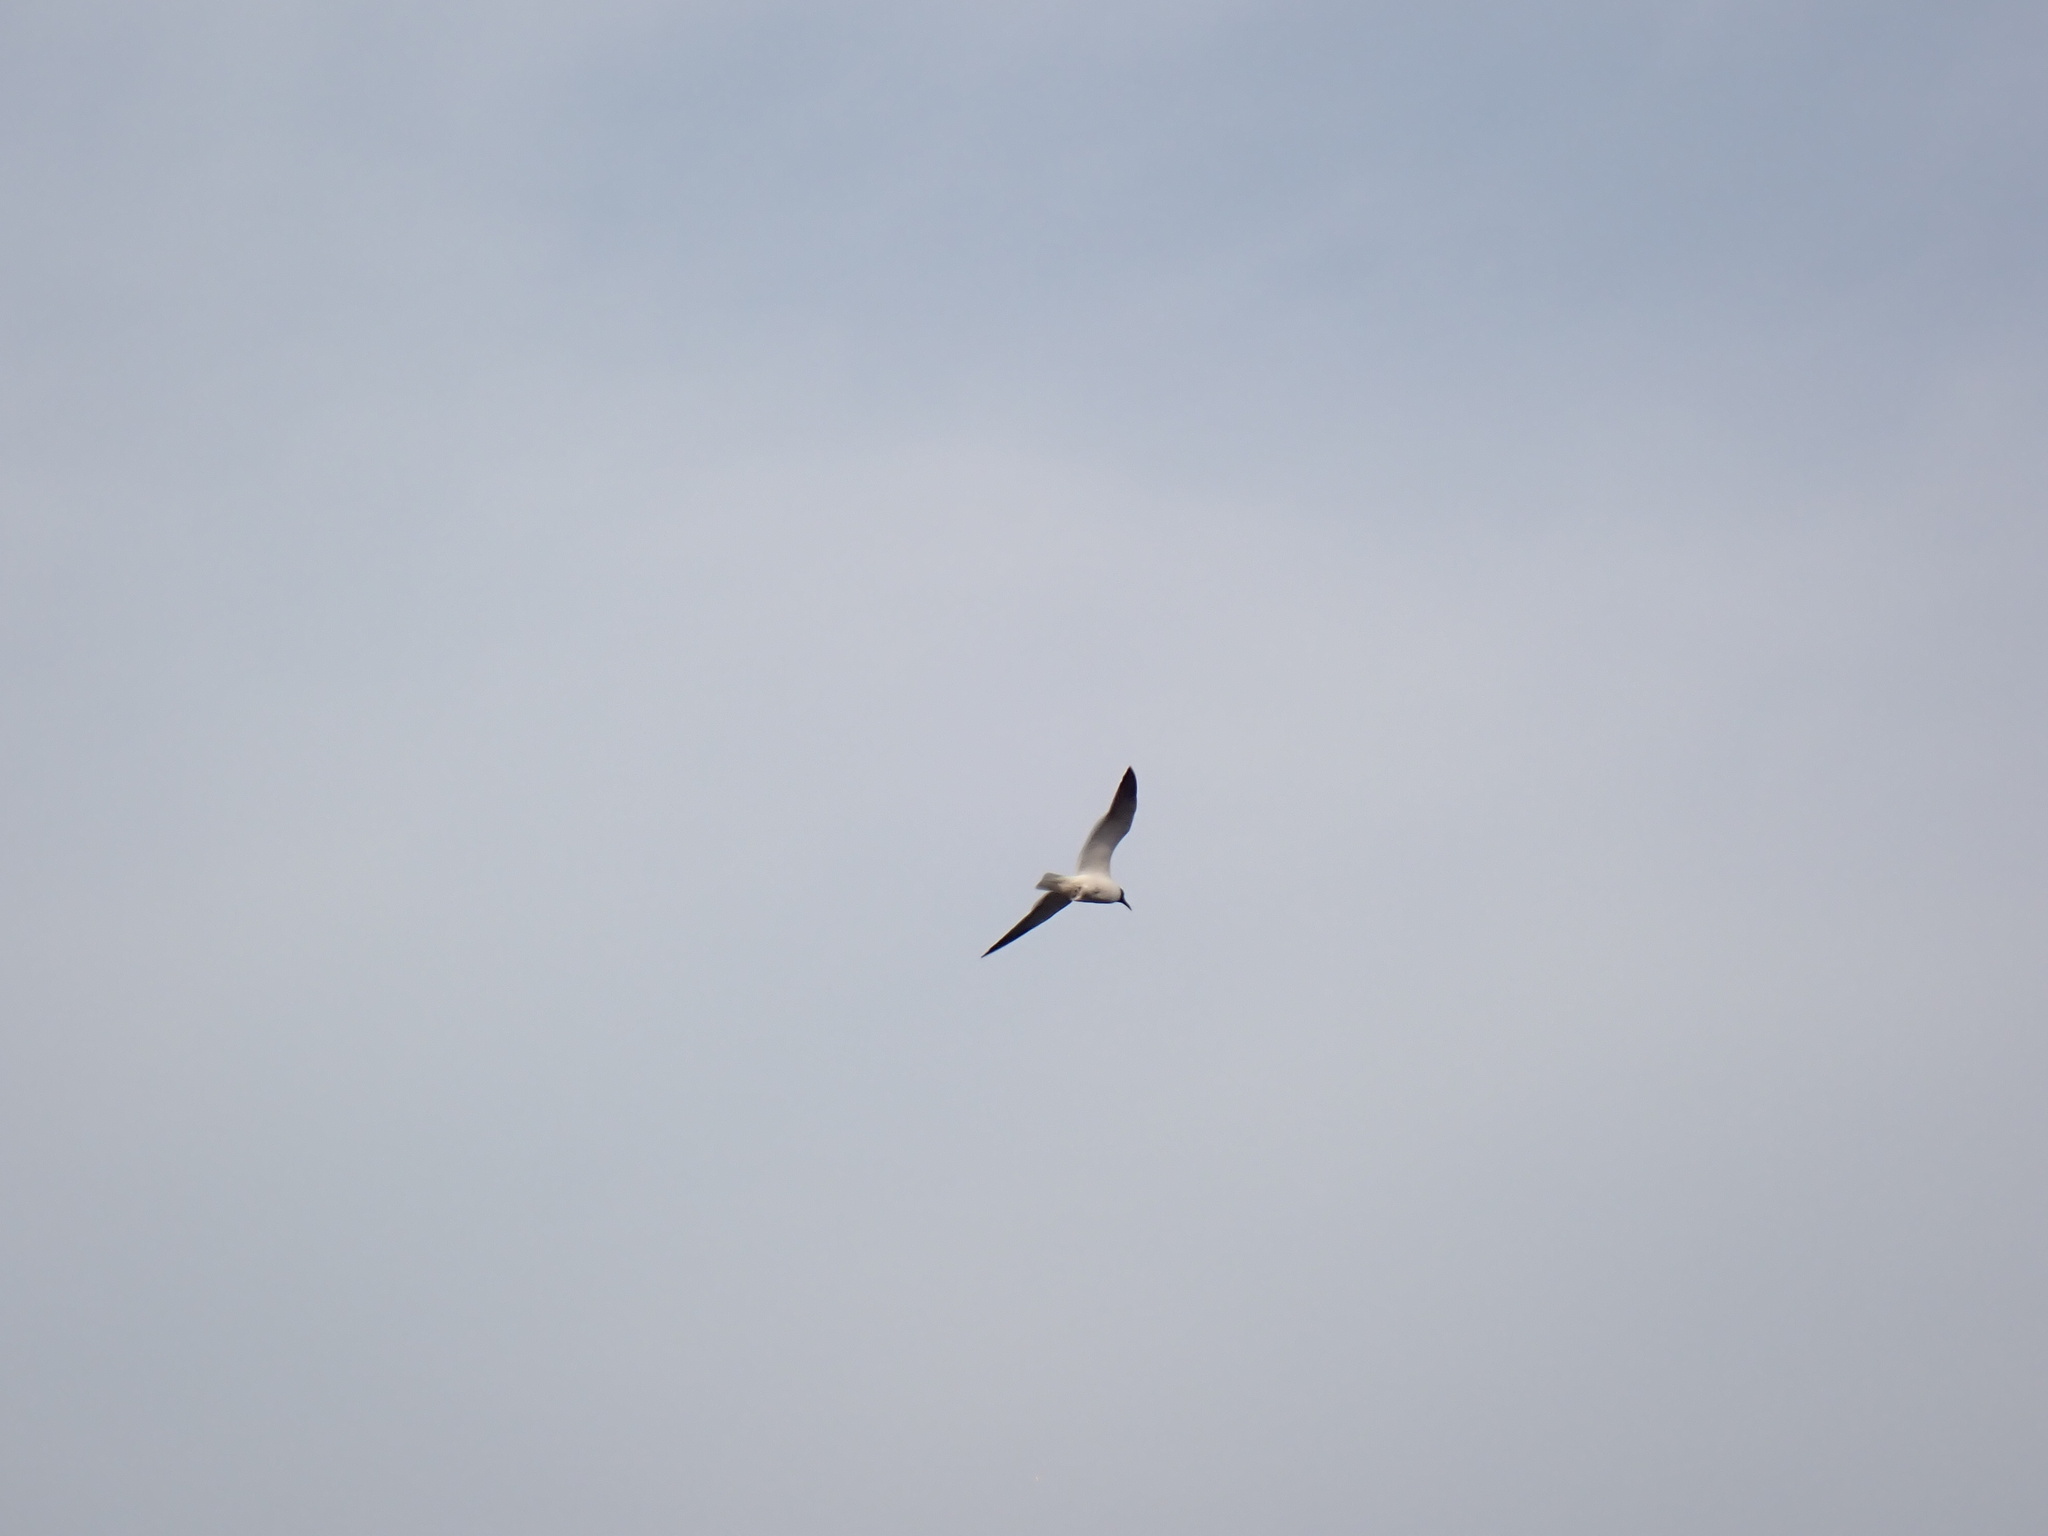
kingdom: Animalia
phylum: Chordata
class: Aves
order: Charadriiformes
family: Laridae
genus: Leucophaeus
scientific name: Leucophaeus atricilla
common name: Laughing gull
